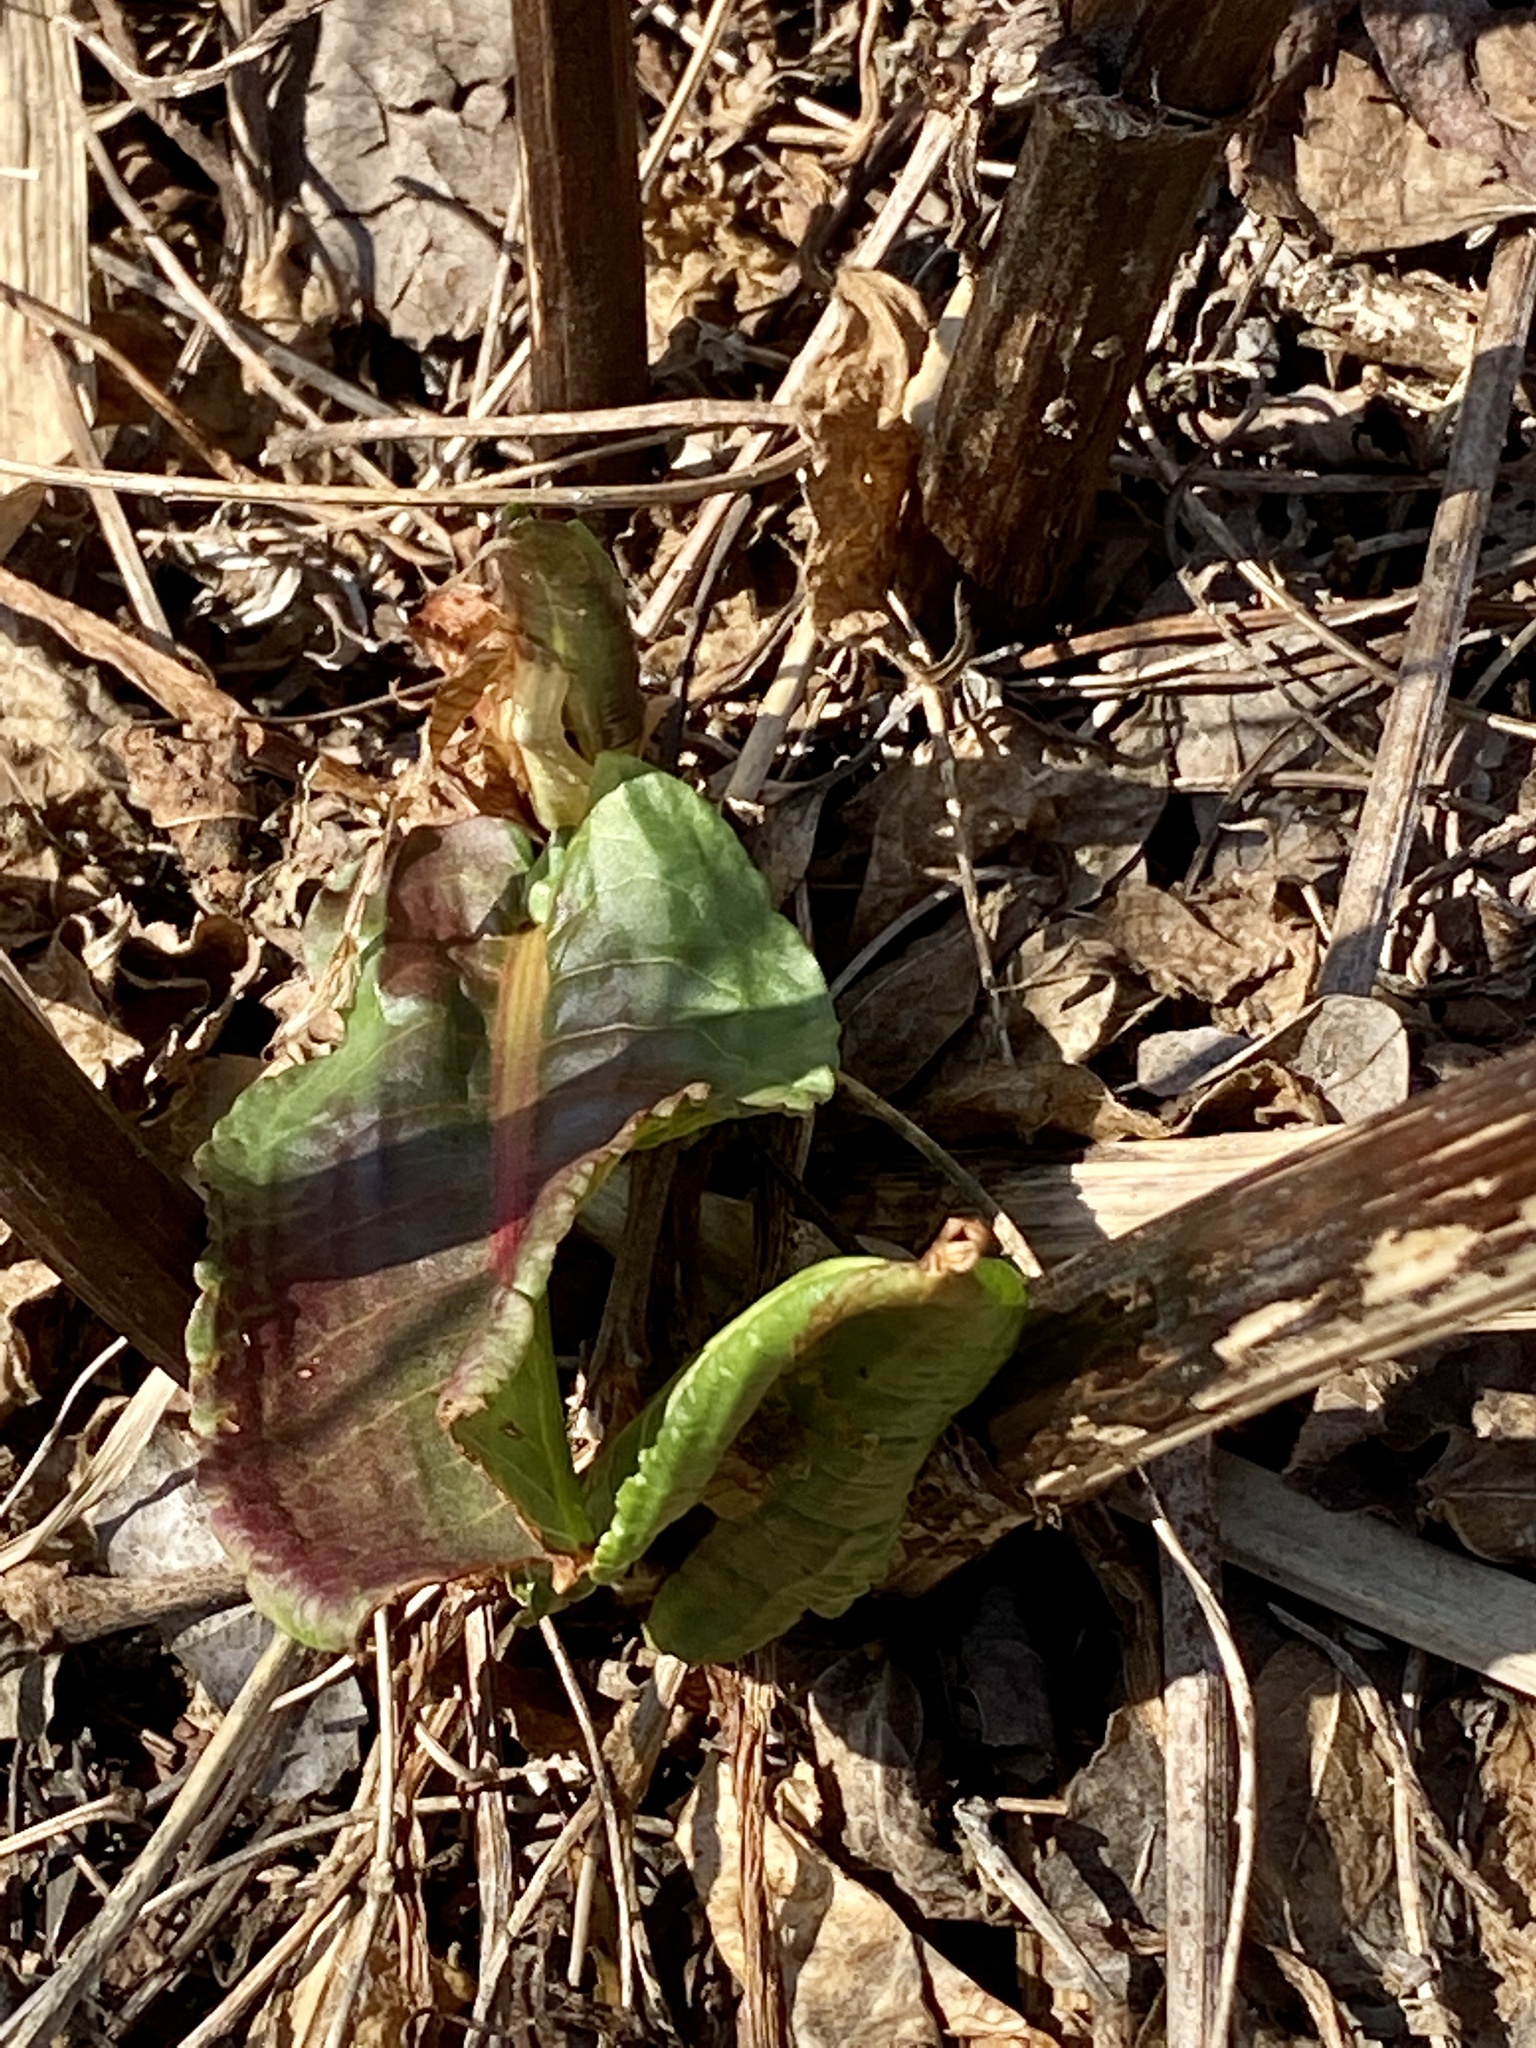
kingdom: Plantae
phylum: Tracheophyta
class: Magnoliopsida
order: Caryophyllales
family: Polygonaceae
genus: Rumex
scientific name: Rumex obtusifolius
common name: Bitter dock
